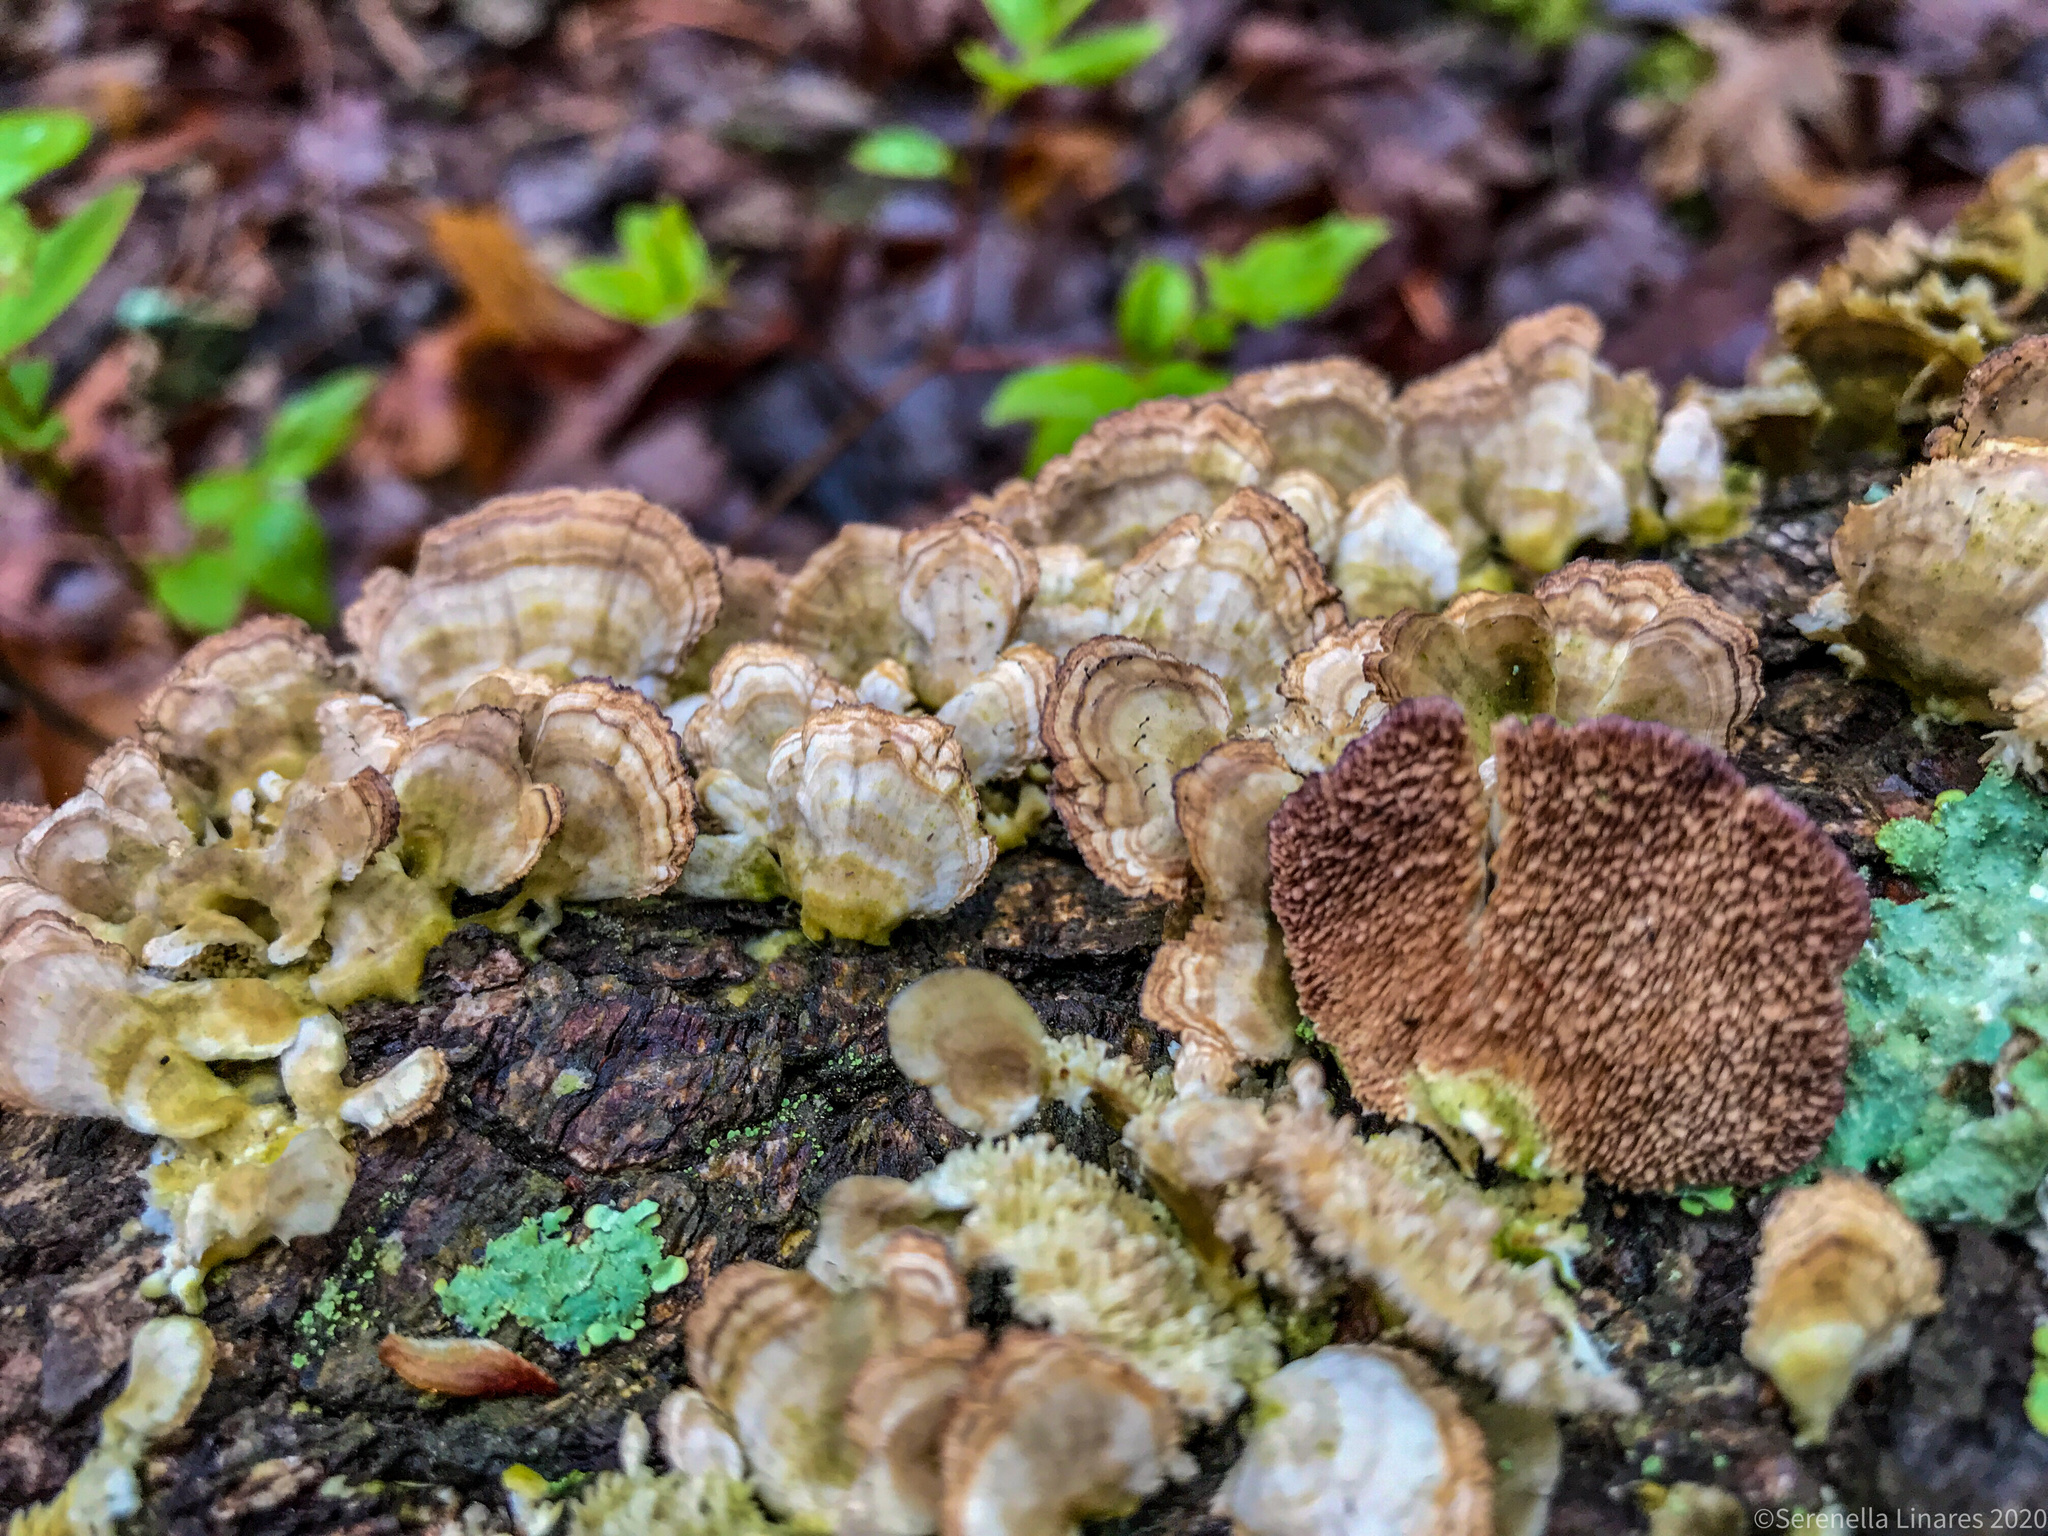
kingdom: Fungi
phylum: Basidiomycota
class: Agaricomycetes
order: Hymenochaetales
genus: Trichaptum
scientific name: Trichaptum biforme
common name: Violet-toothed polypore
